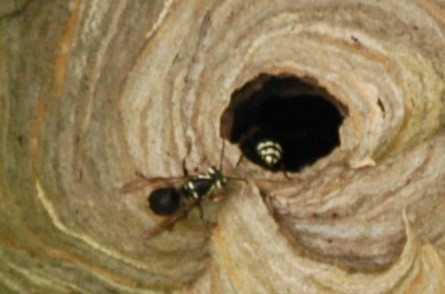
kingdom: Animalia
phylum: Arthropoda
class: Insecta
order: Hymenoptera
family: Vespidae
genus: Dolichovespula
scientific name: Dolichovespula maculata
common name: Bald-faced hornet
